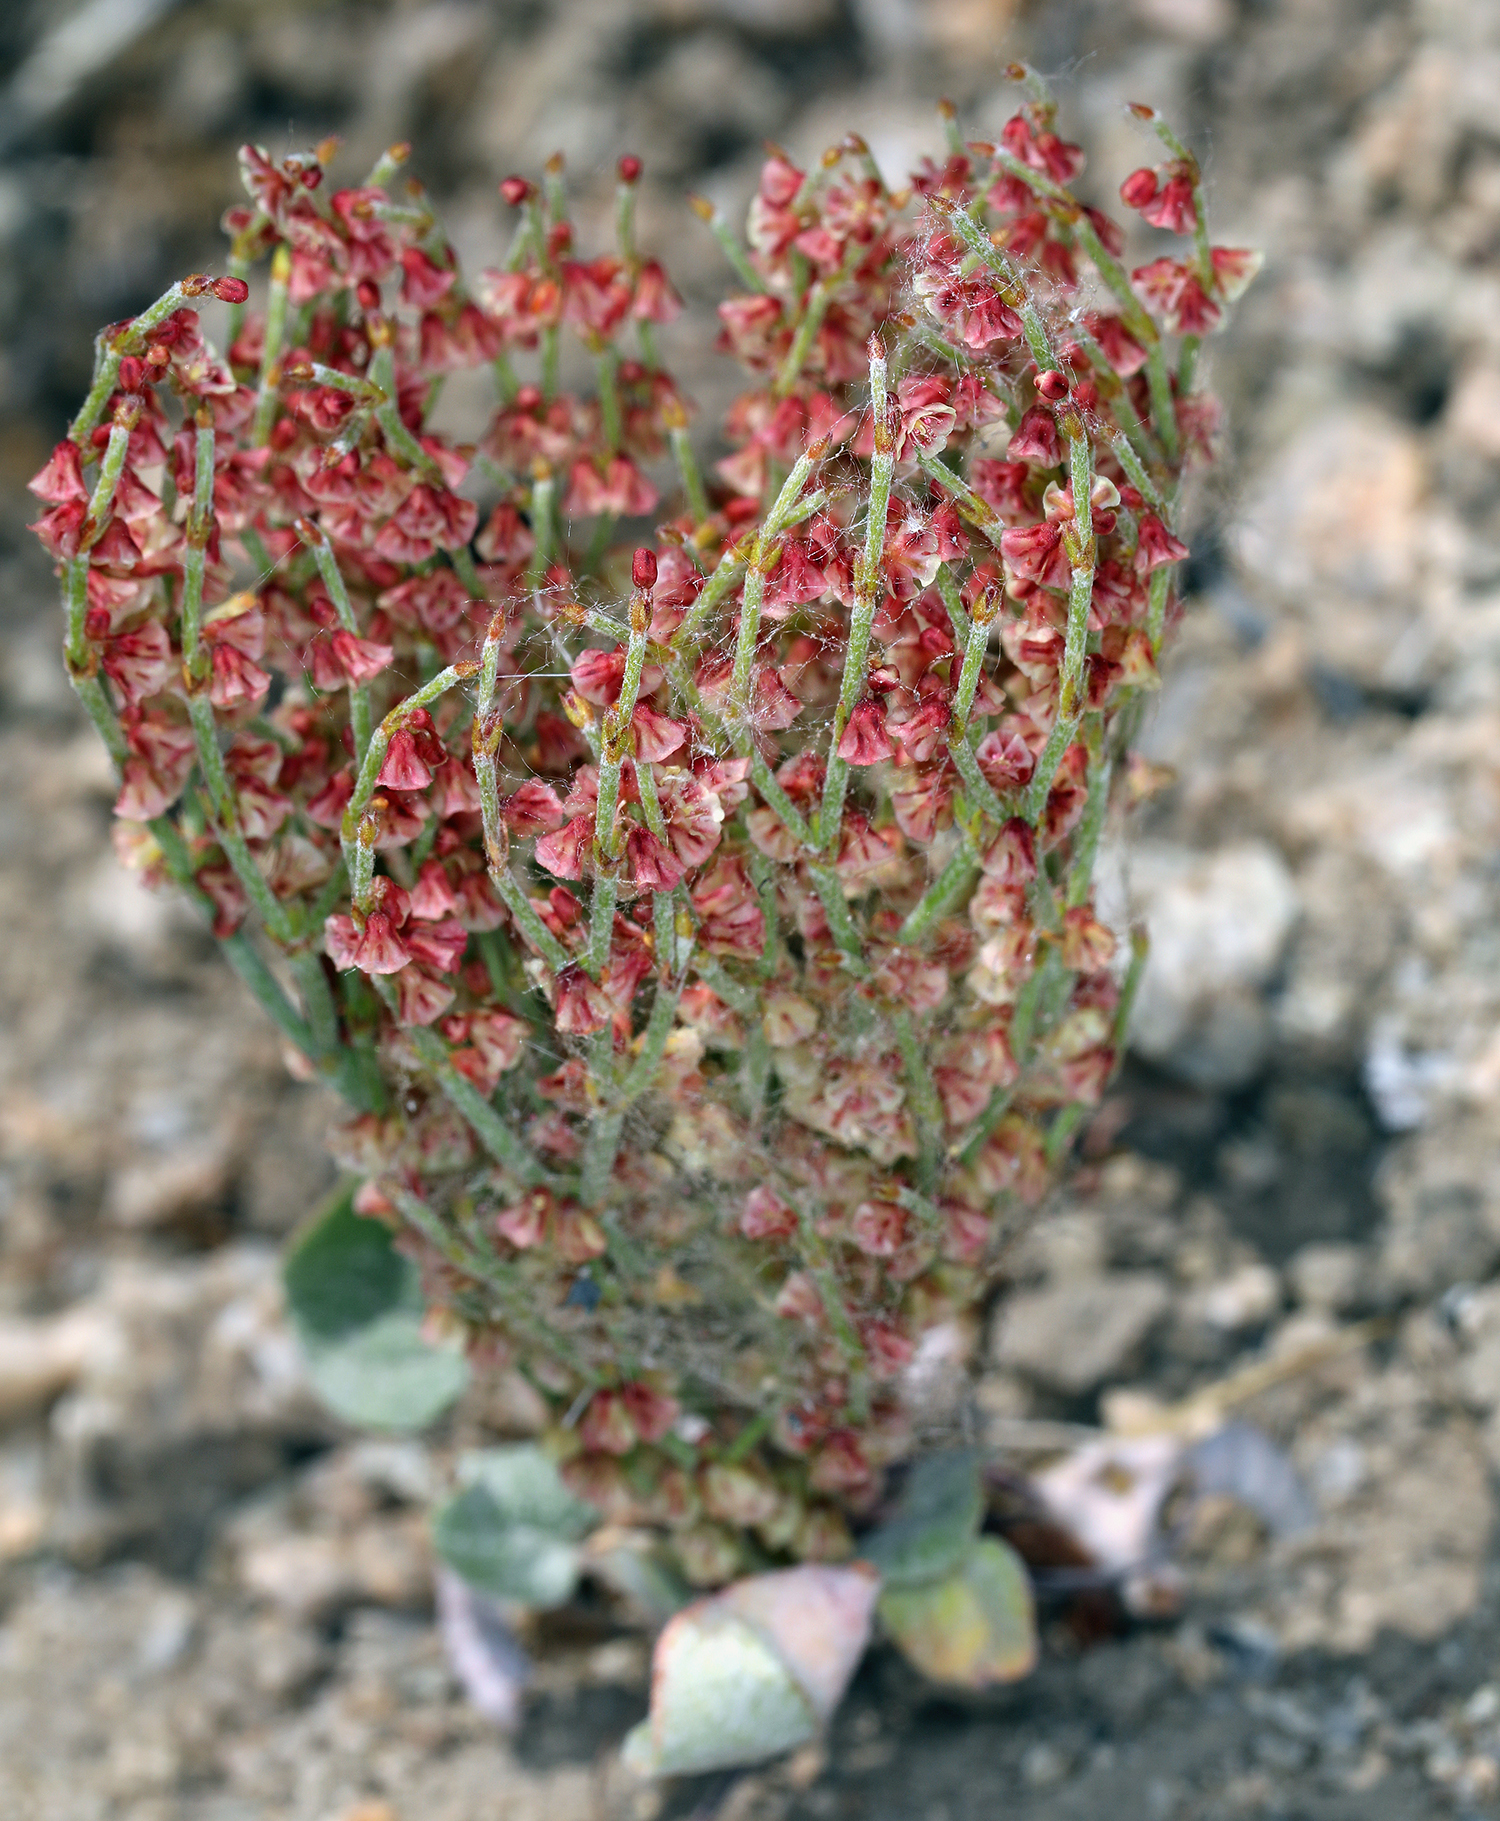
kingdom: Plantae
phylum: Tracheophyta
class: Magnoliopsida
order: Caryophyllales
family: Polygonaceae
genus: Eriogonum
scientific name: Eriogonum nidularium
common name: Bird's-nest wild buckwheat
